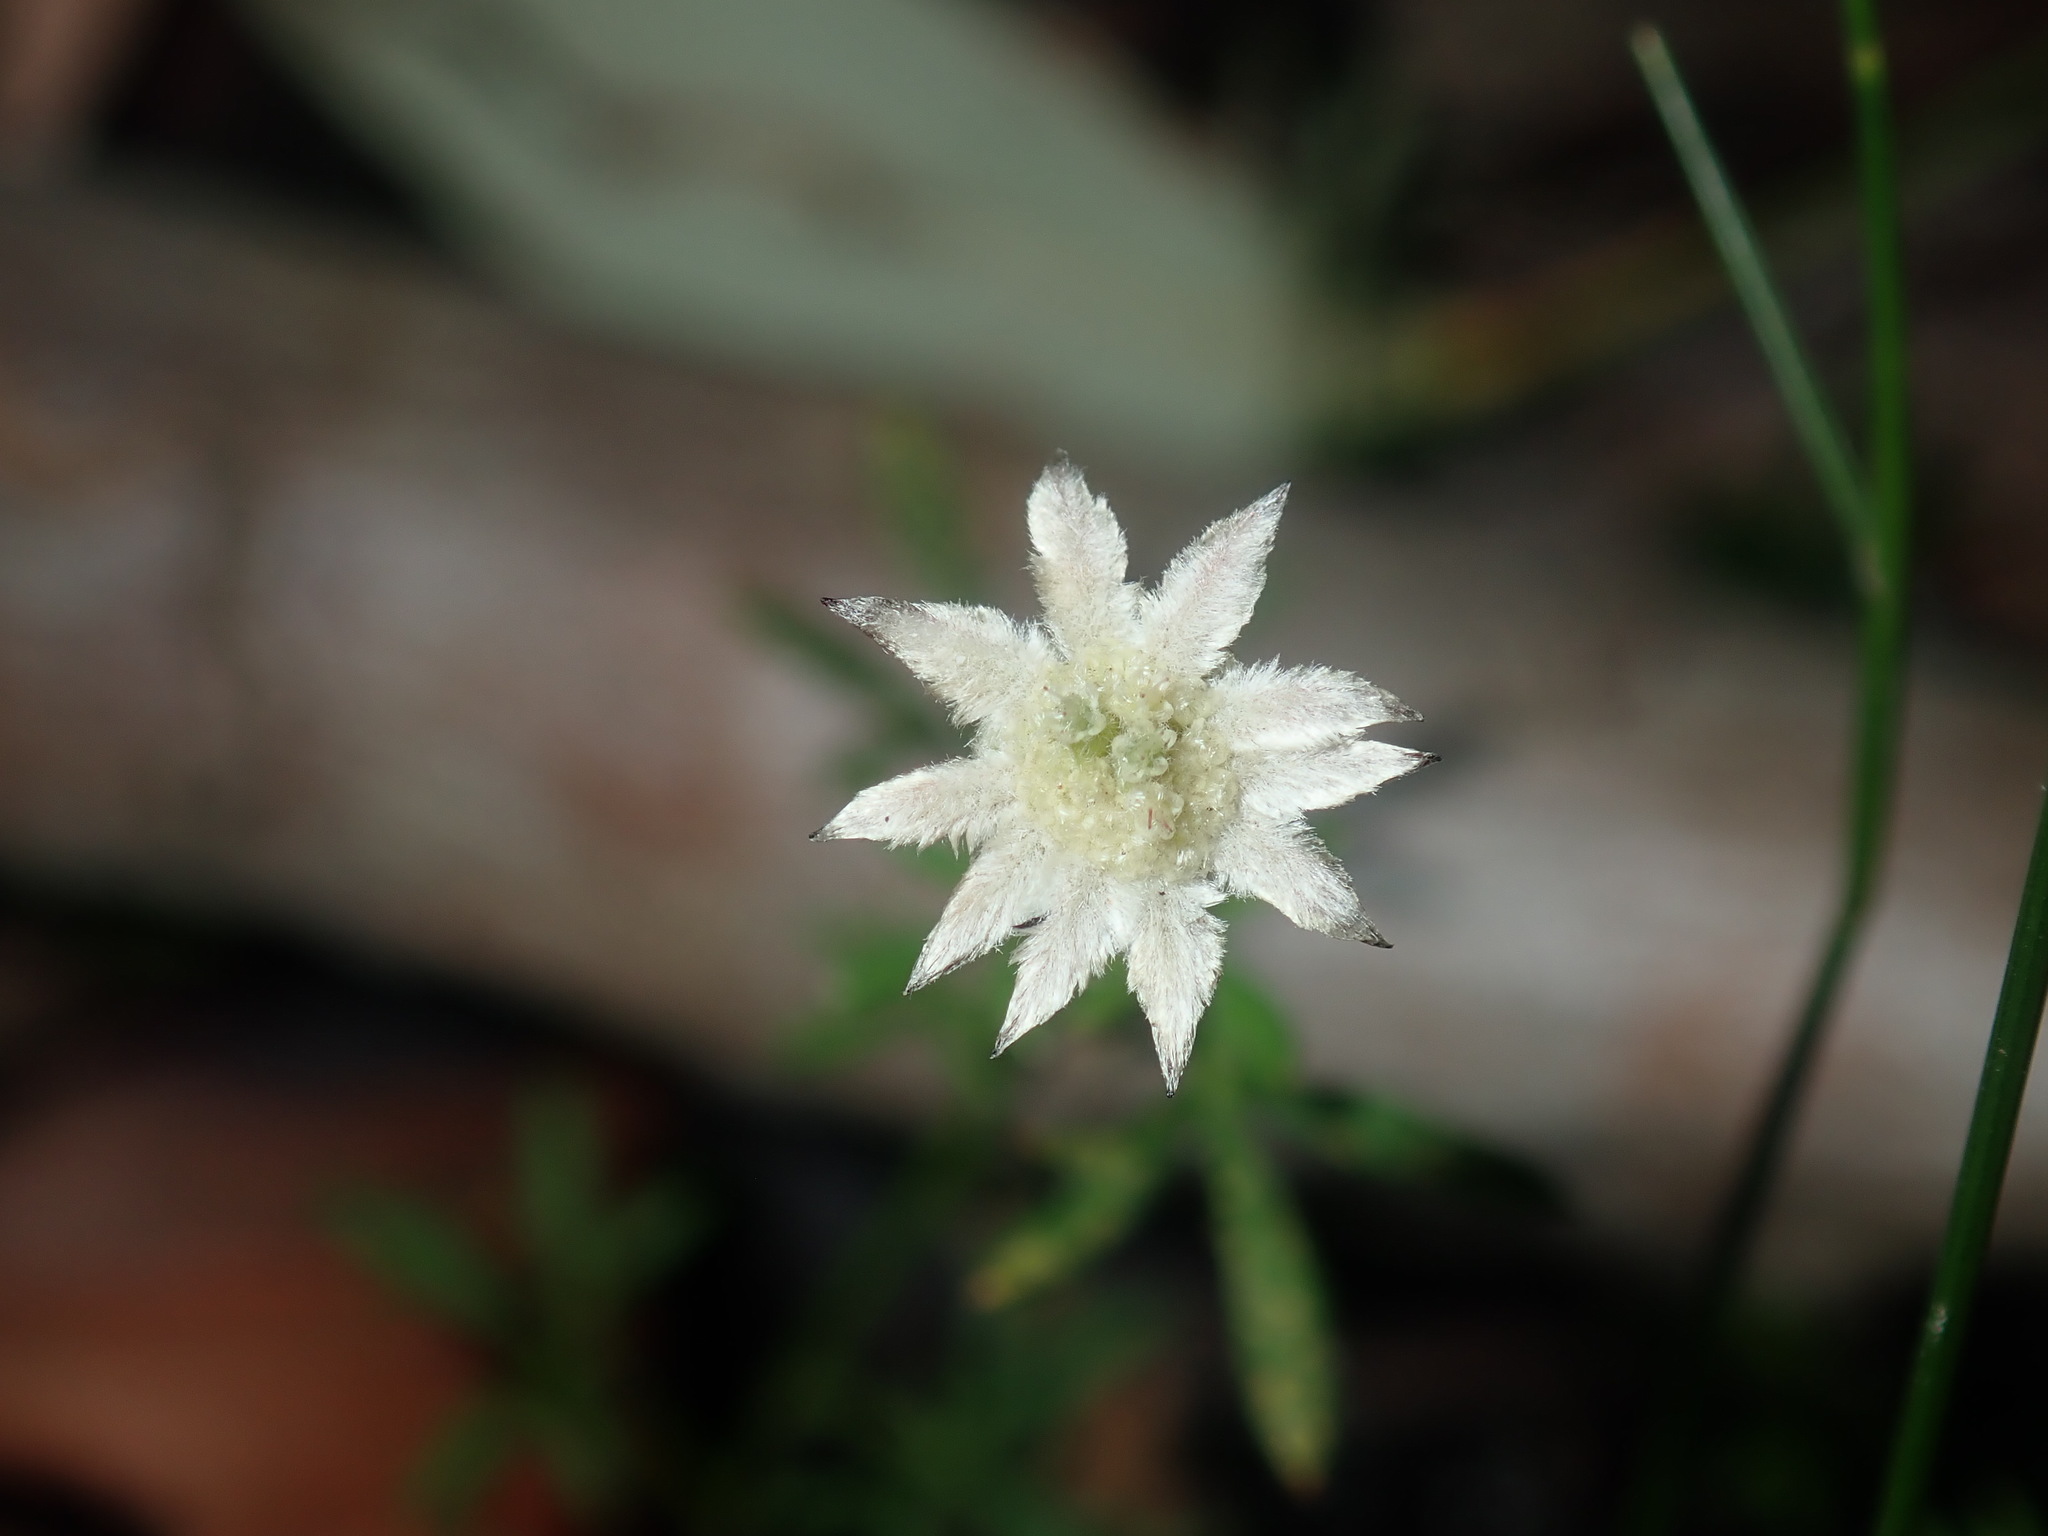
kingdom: Plantae
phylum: Tracheophyta
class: Magnoliopsida
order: Apiales
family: Apiaceae
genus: Actinotus
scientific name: Actinotus minor
